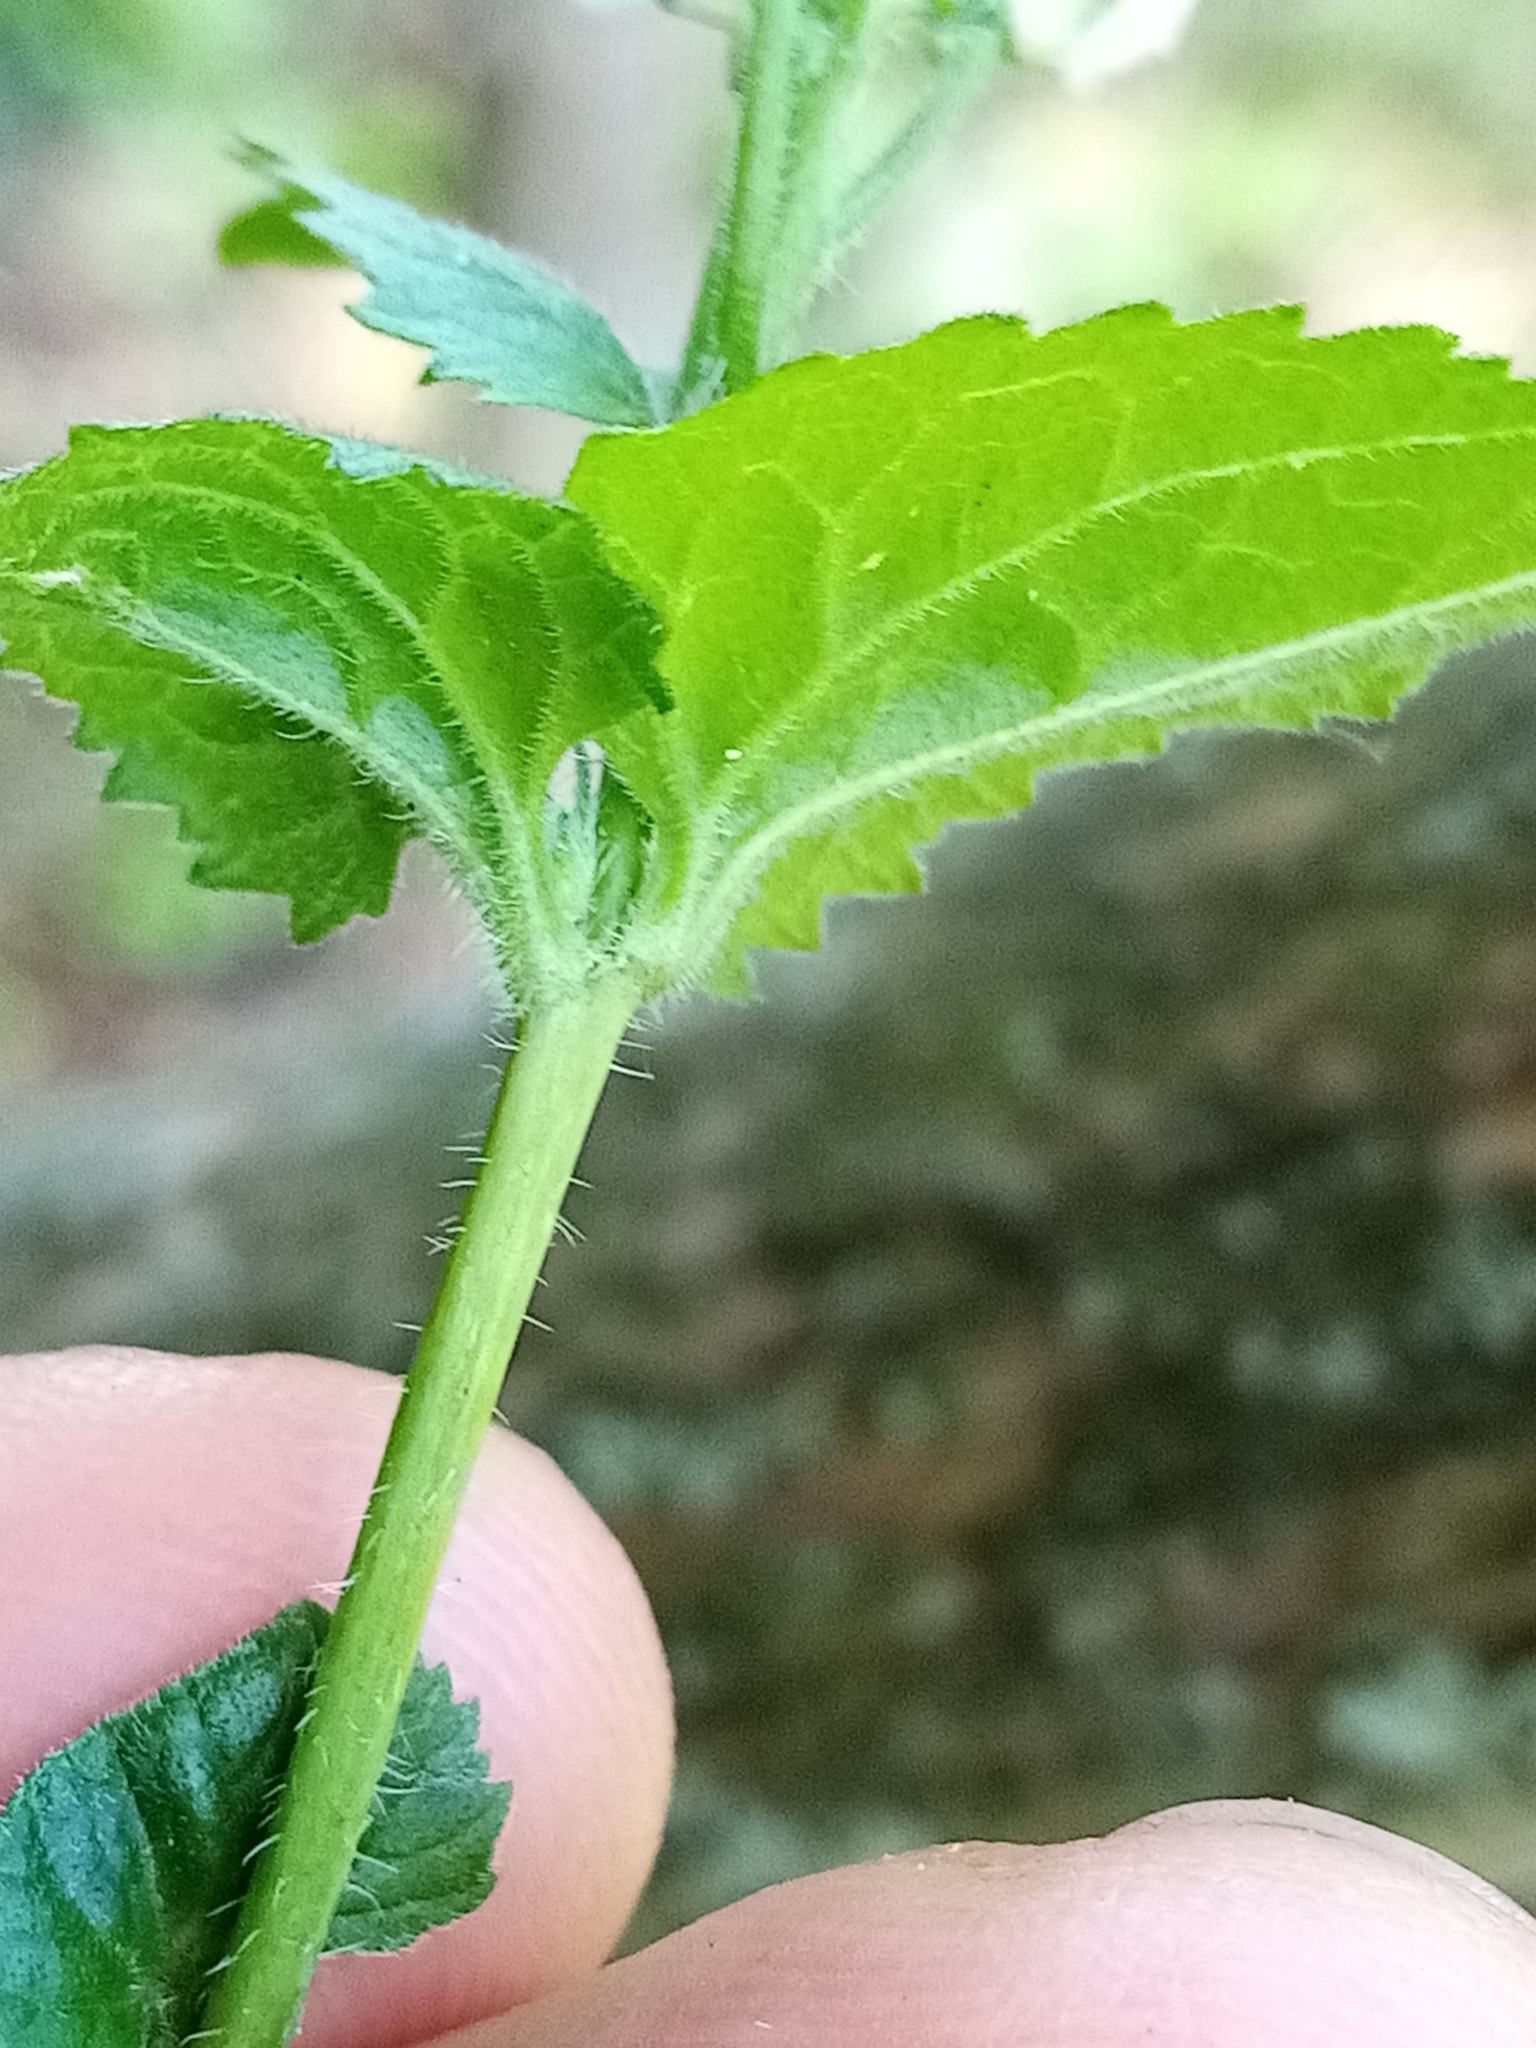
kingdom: Plantae
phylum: Tracheophyta
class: Magnoliopsida
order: Brassicales
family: Brassicaceae
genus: Lunaria
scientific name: Lunaria annua
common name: Honesty
